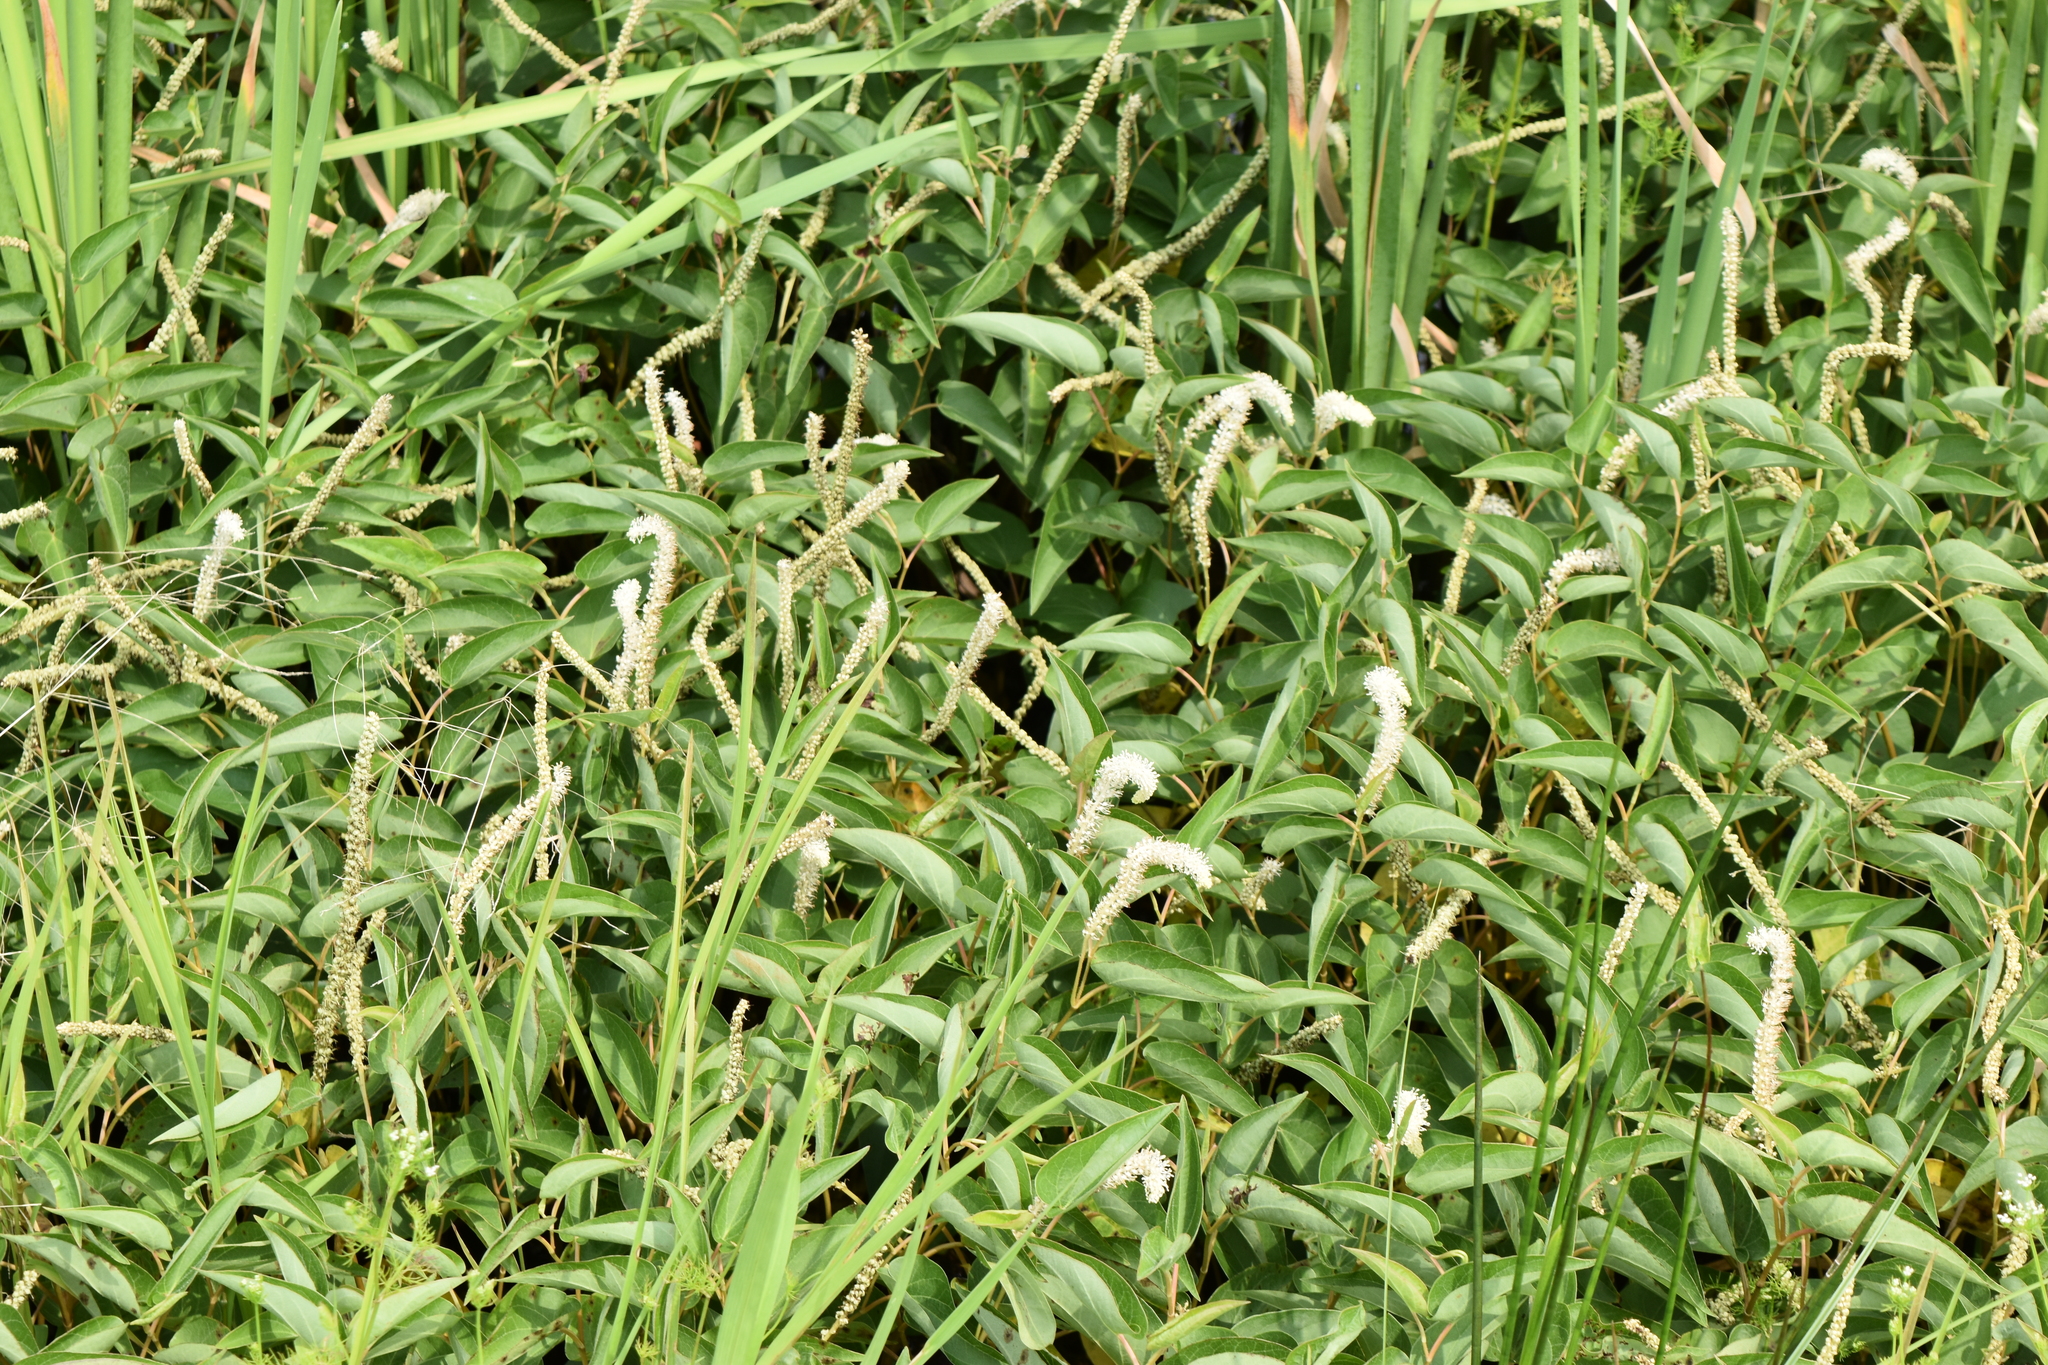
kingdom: Plantae
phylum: Tracheophyta
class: Magnoliopsida
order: Piperales
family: Saururaceae
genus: Saururus
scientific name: Saururus cernuus
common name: Lizard's-tail
